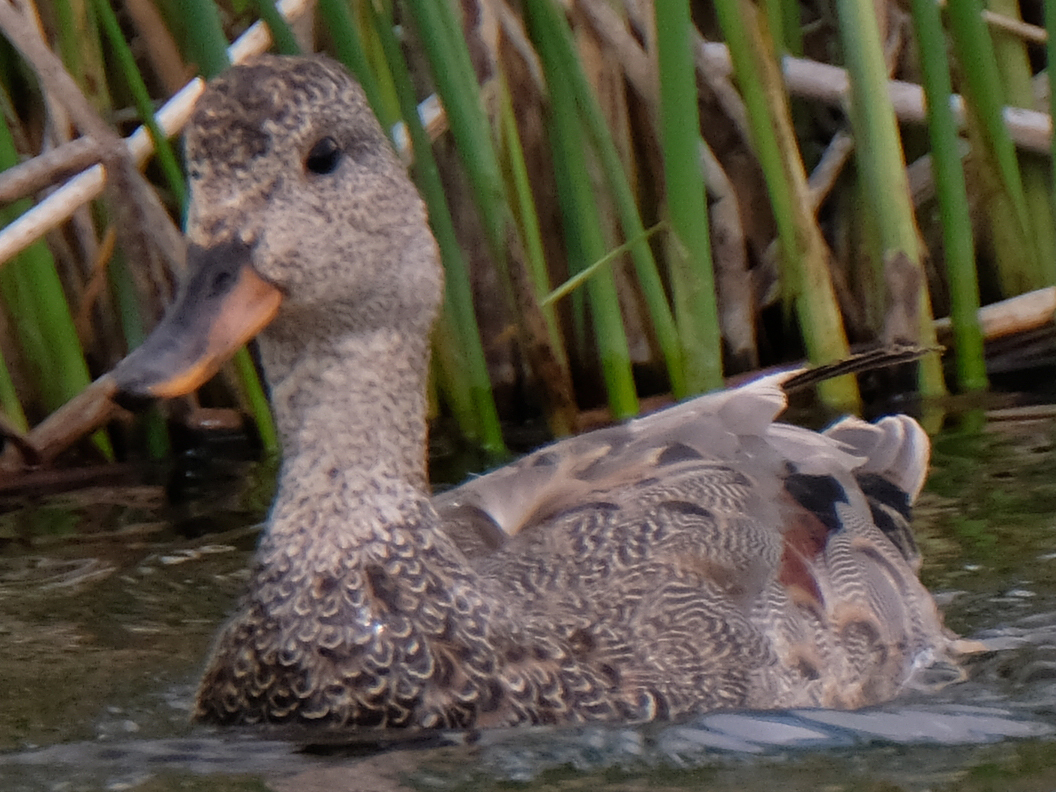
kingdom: Animalia
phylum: Chordata
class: Aves
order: Anseriformes
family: Anatidae
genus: Mareca
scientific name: Mareca strepera
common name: Gadwall
